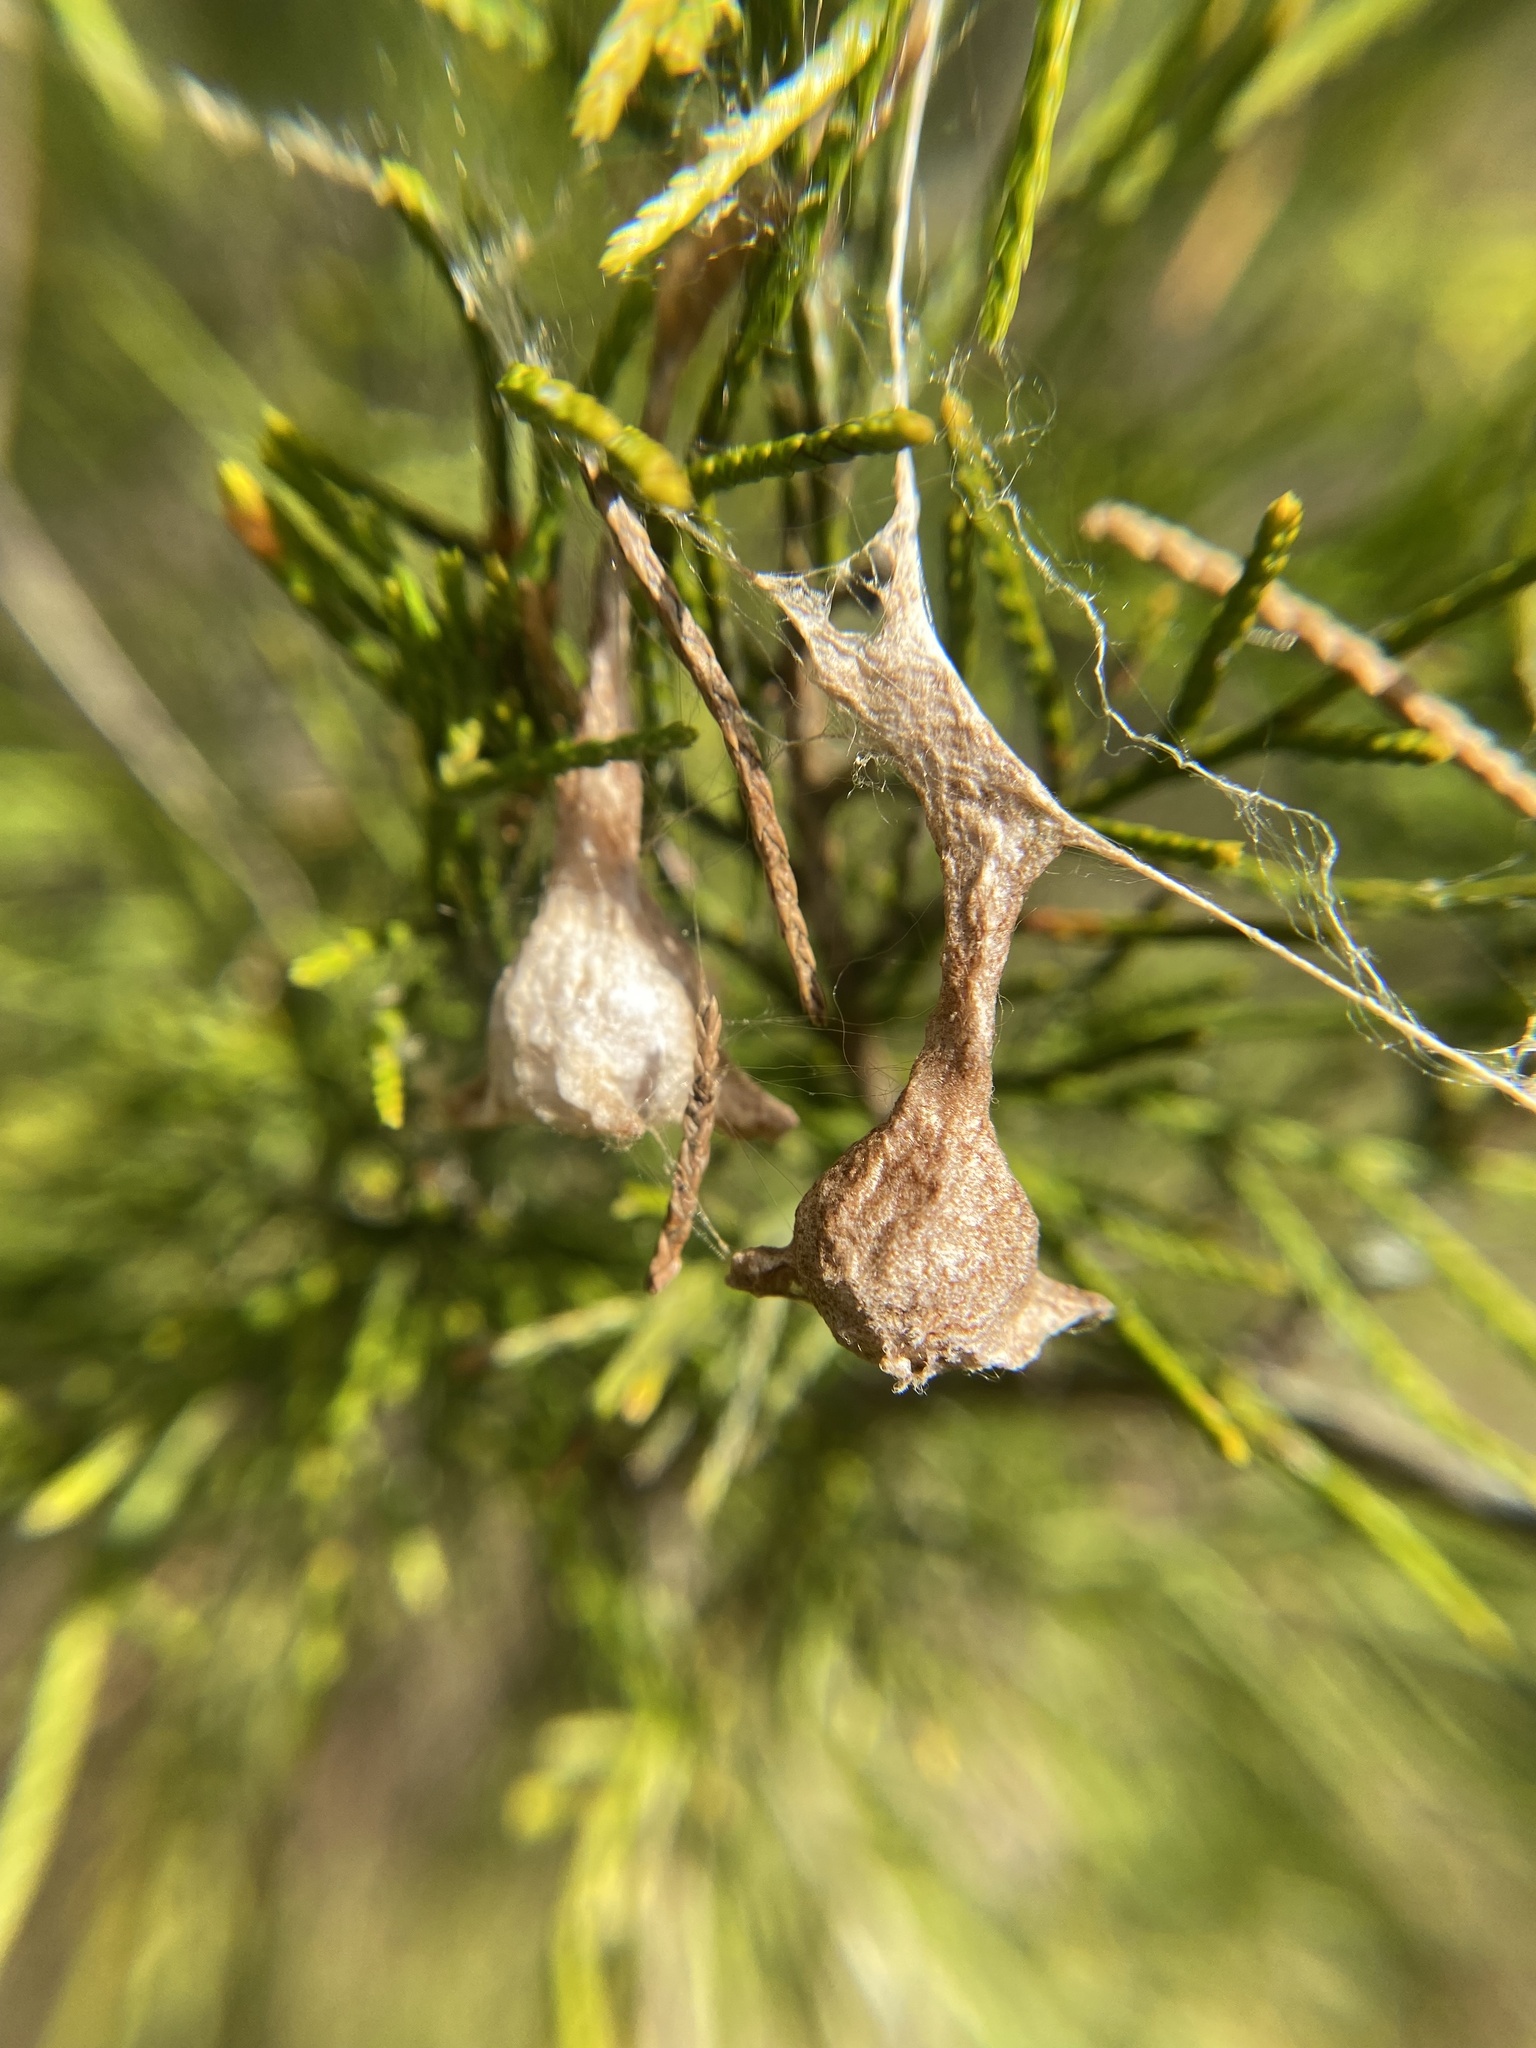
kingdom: Animalia
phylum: Arthropoda
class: Arachnida
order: Araneae
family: Araneidae
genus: Mastophora
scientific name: Mastophora phrynosoma
